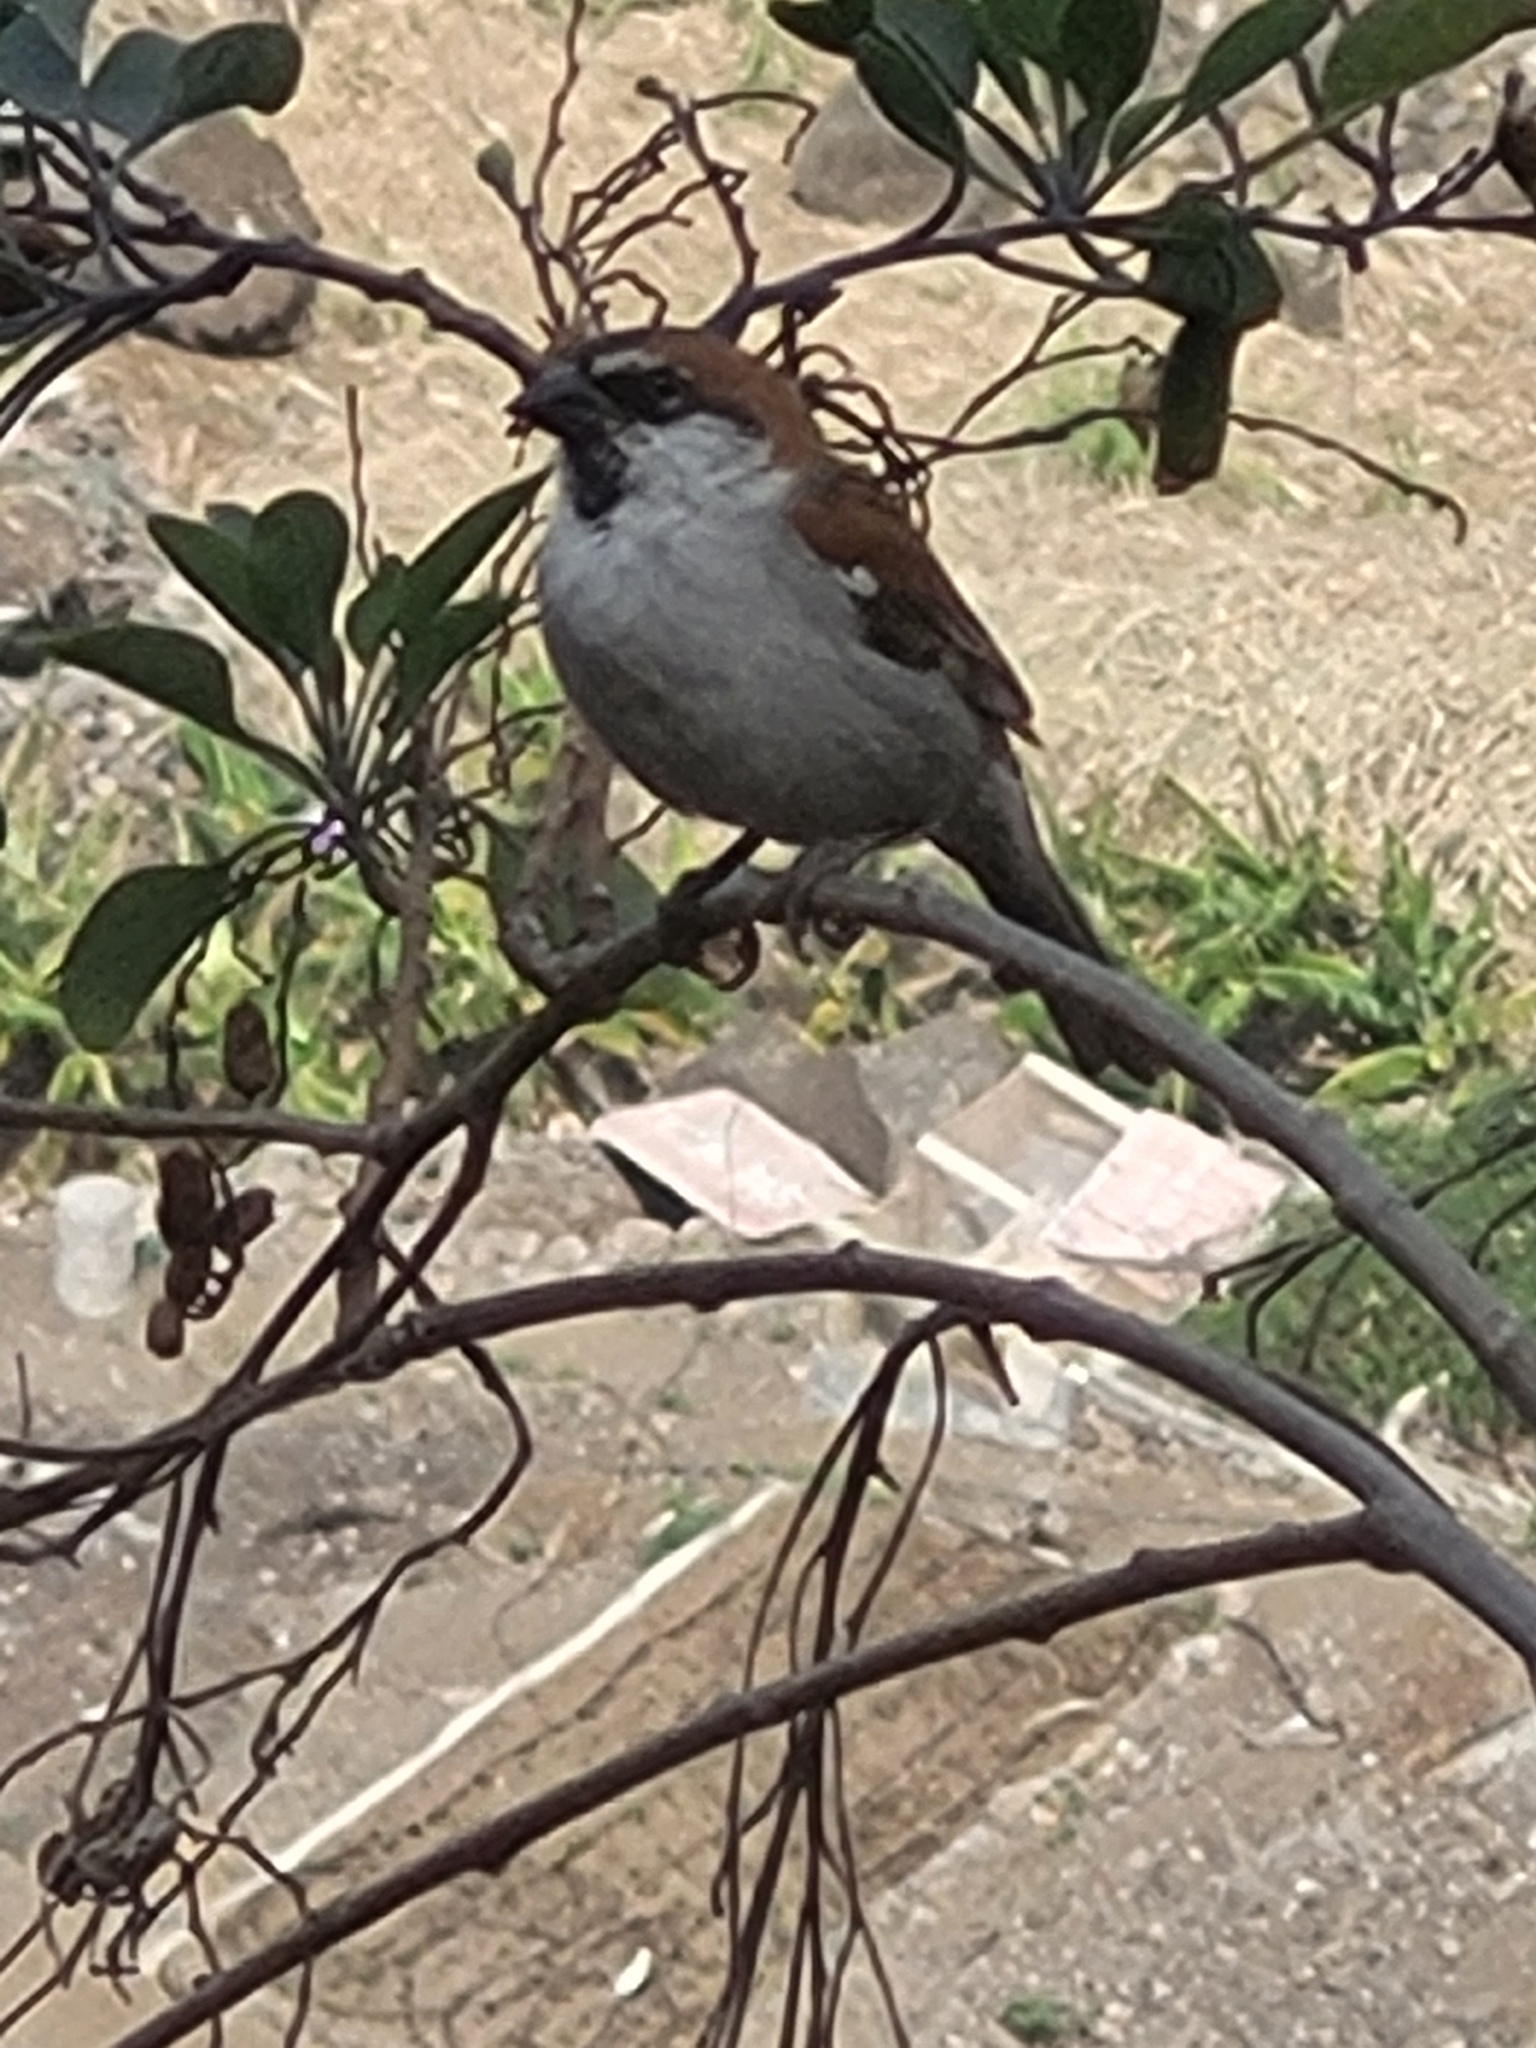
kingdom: Animalia
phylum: Chordata
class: Aves
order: Passeriformes
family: Passeridae
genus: Passer
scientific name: Passer iagoensis
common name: Iago sparrow
